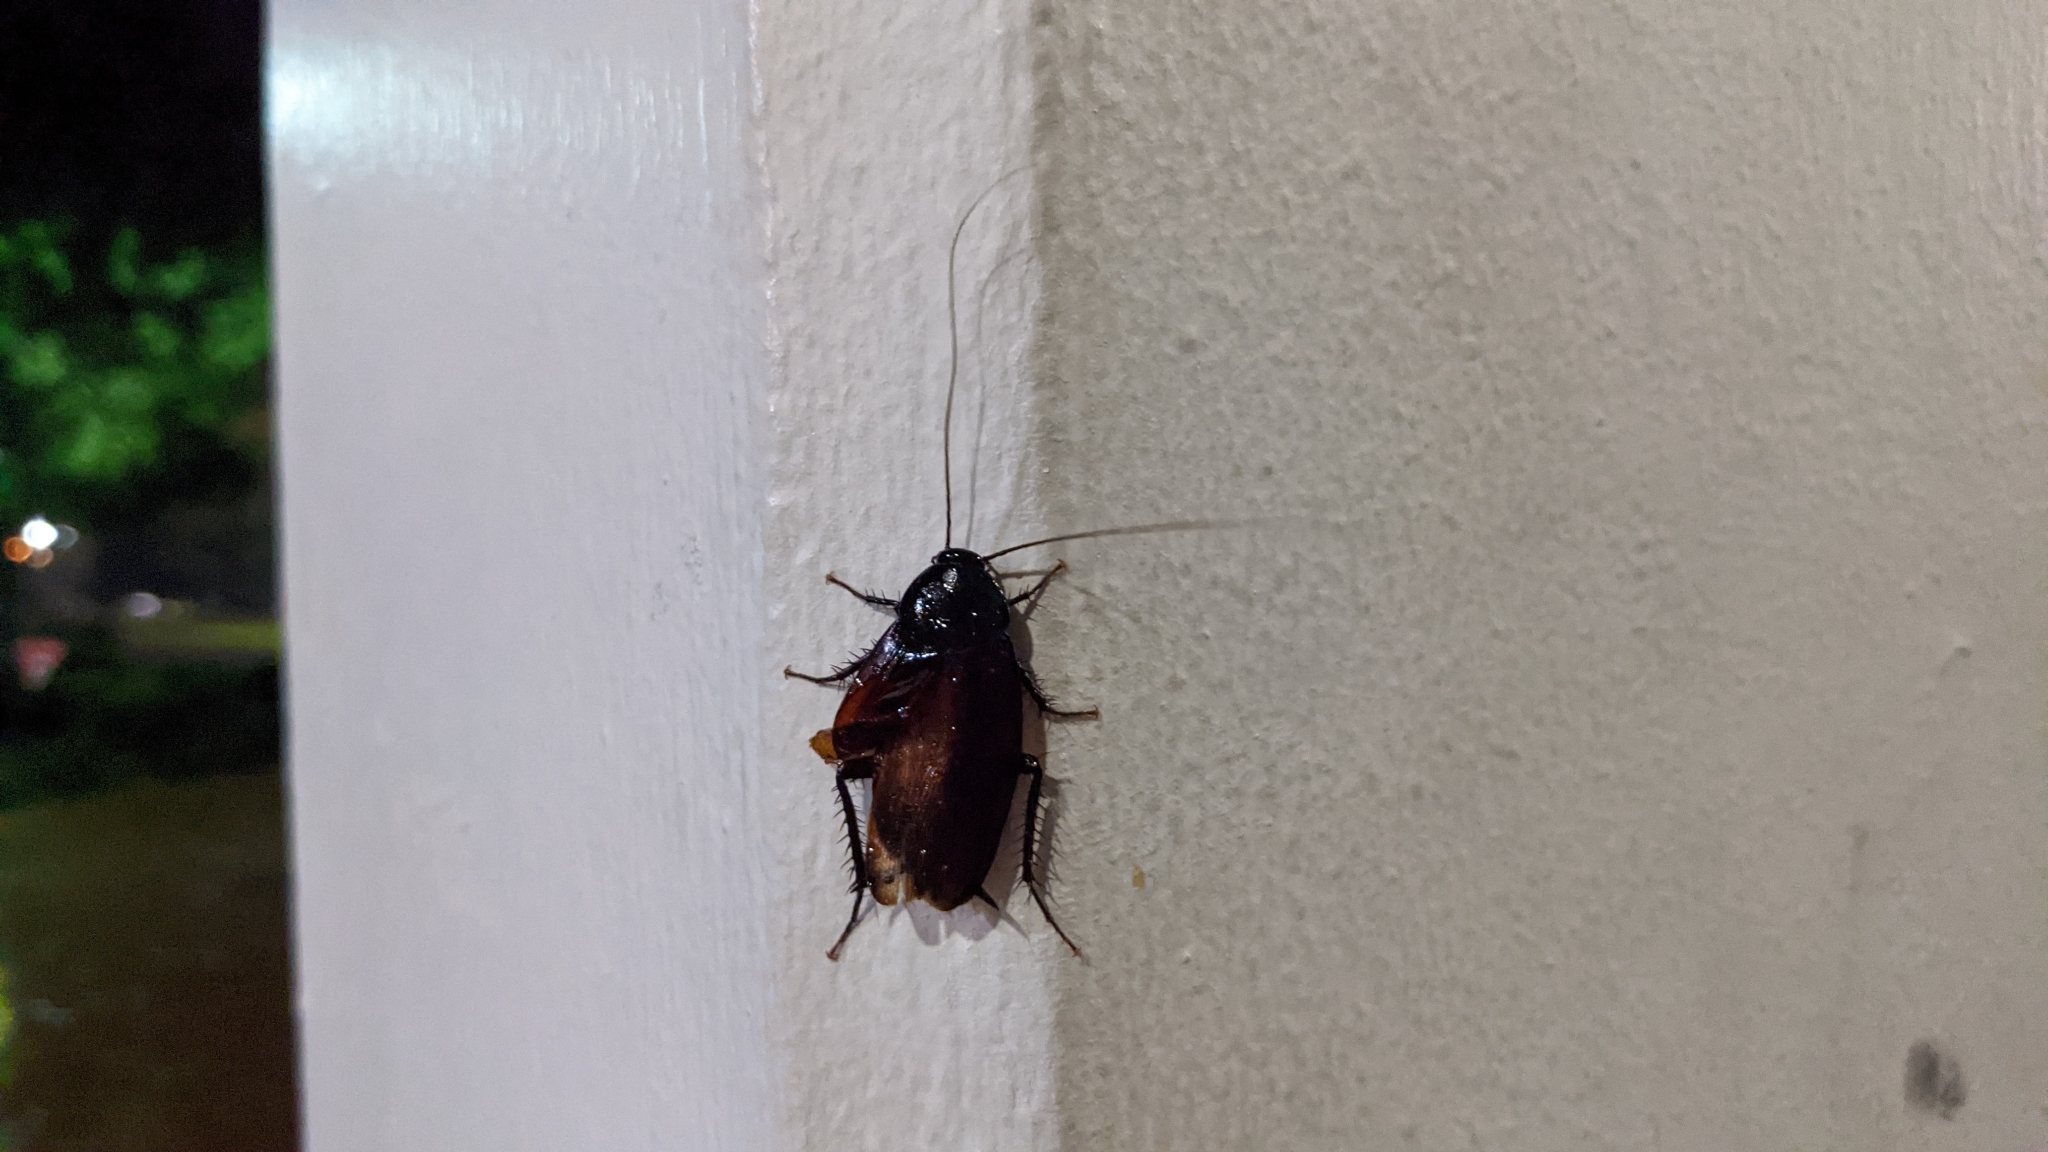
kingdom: Animalia
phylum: Arthropoda
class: Insecta
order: Blattodea
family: Blattidae
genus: Periplaneta
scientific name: Periplaneta fuliginosa
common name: Smokeybrown cockroad
